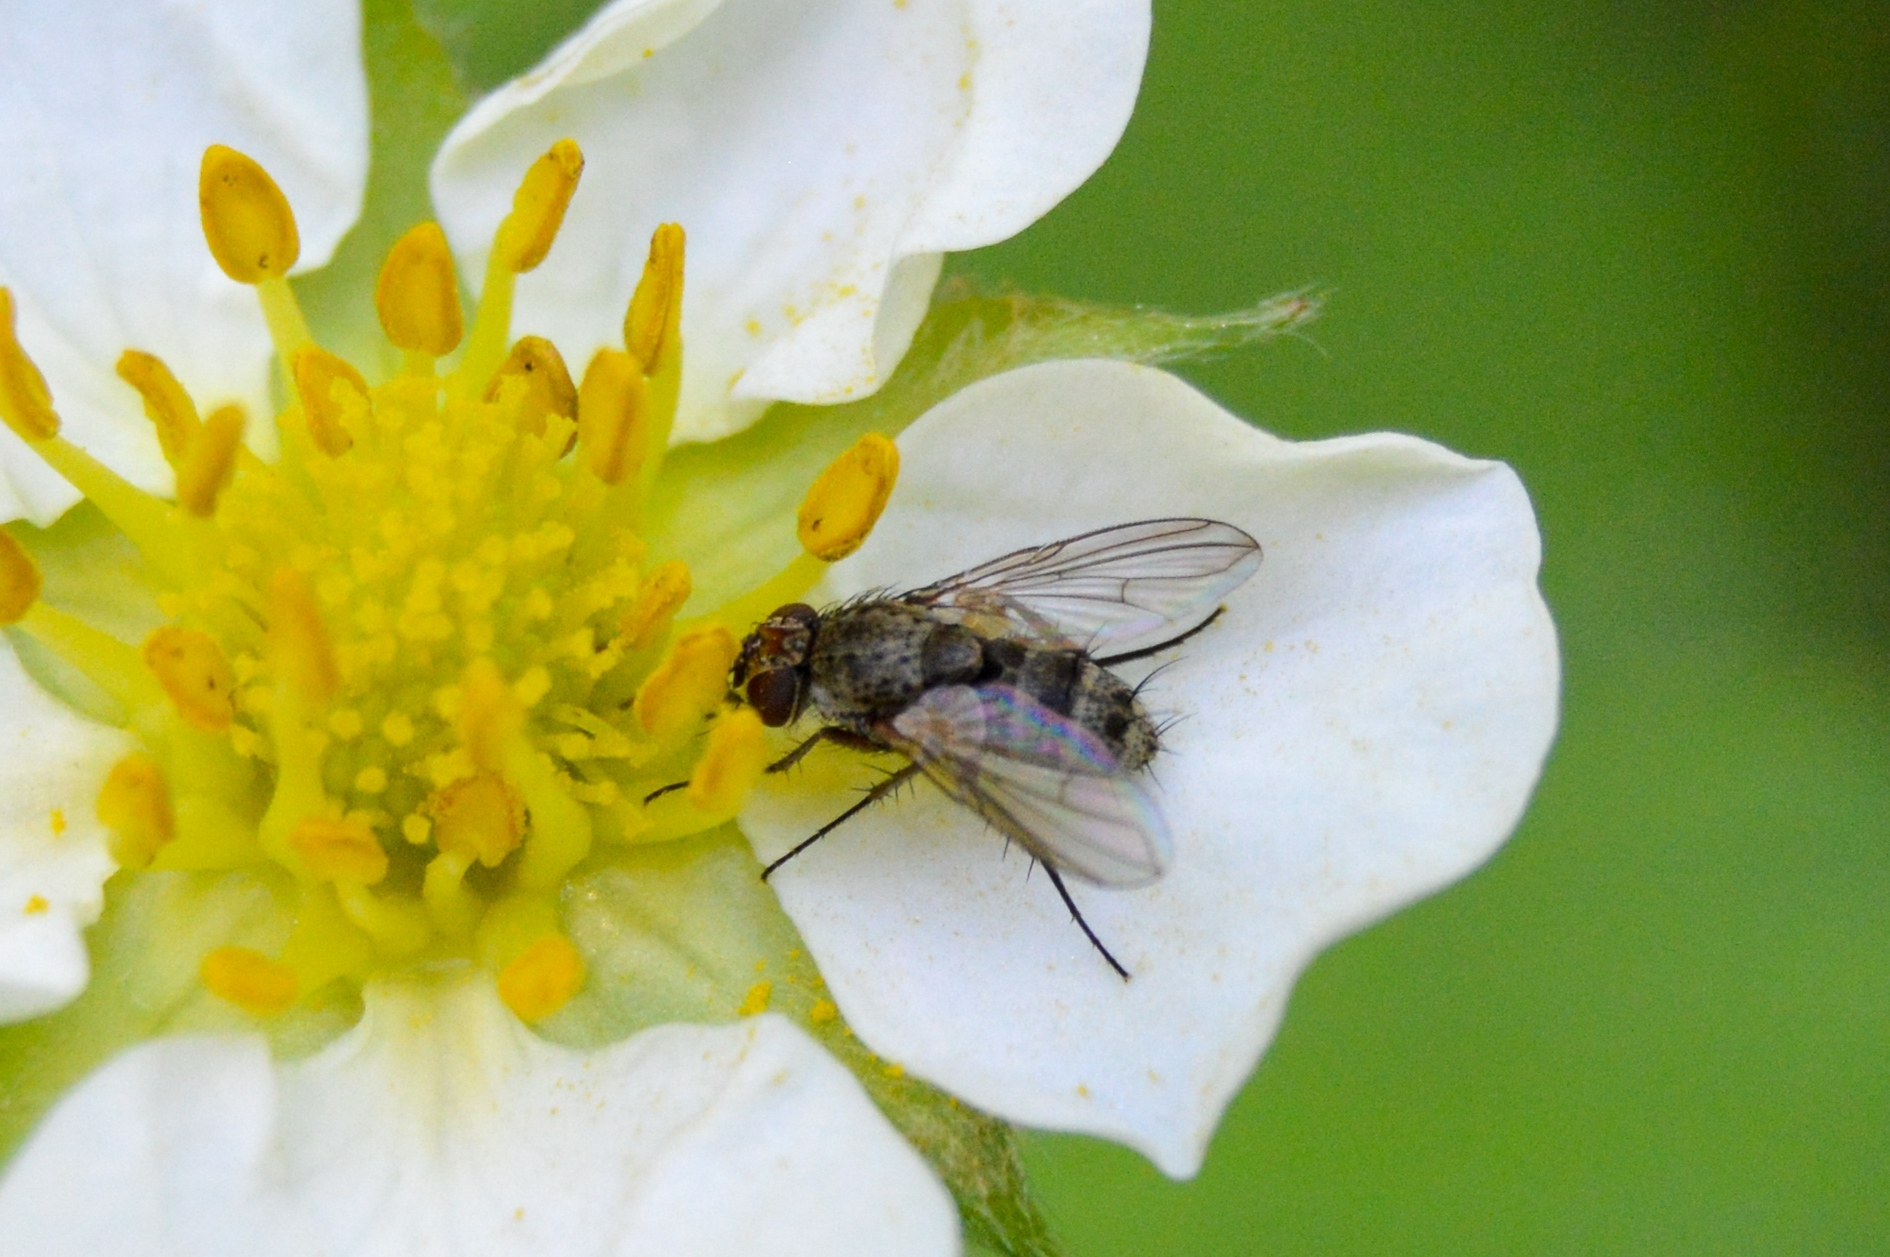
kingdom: Animalia
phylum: Arthropoda
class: Insecta
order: Diptera
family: Tachinidae
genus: Siphona
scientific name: Siphona rossica
